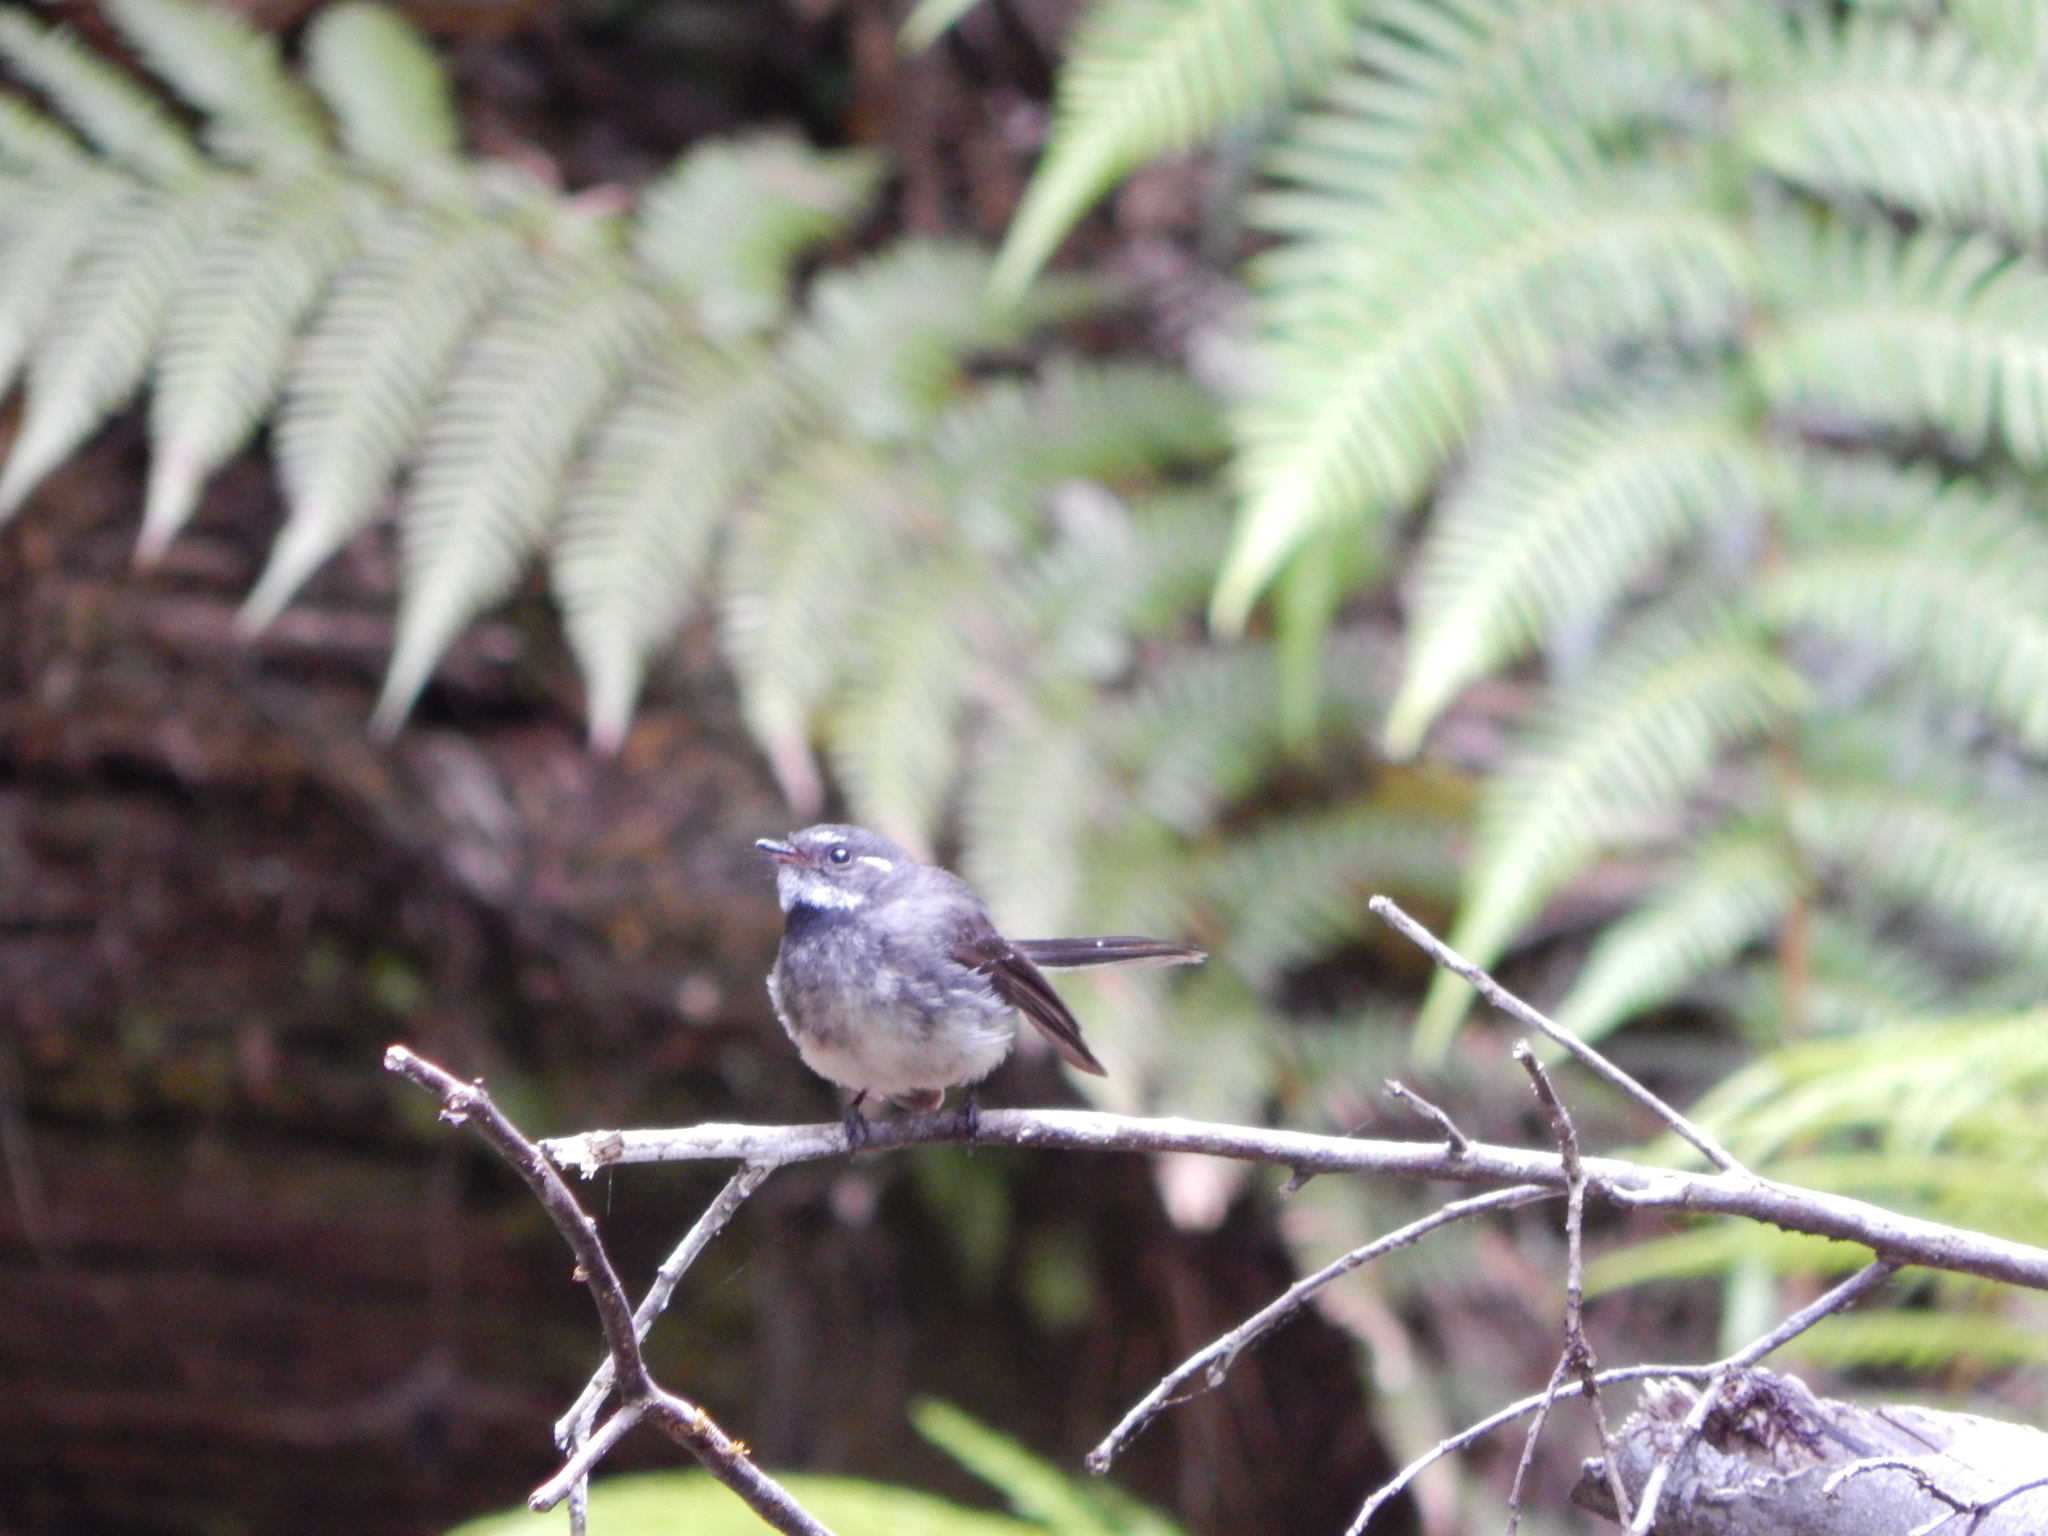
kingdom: Animalia
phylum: Chordata
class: Aves
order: Passeriformes
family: Rhipiduridae
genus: Rhipidura
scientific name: Rhipidura albiscapa
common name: Grey fantail
